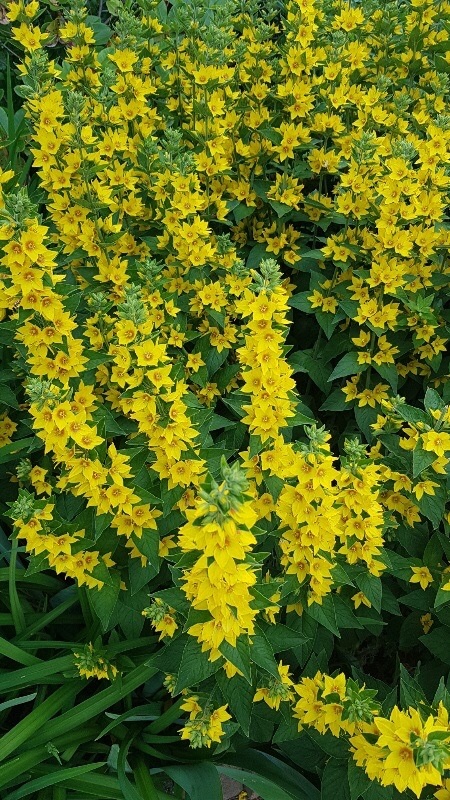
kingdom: Plantae
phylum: Tracheophyta
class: Magnoliopsida
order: Ericales
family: Primulaceae
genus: Lysimachia
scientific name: Lysimachia punctata
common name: Dotted loosestrife
